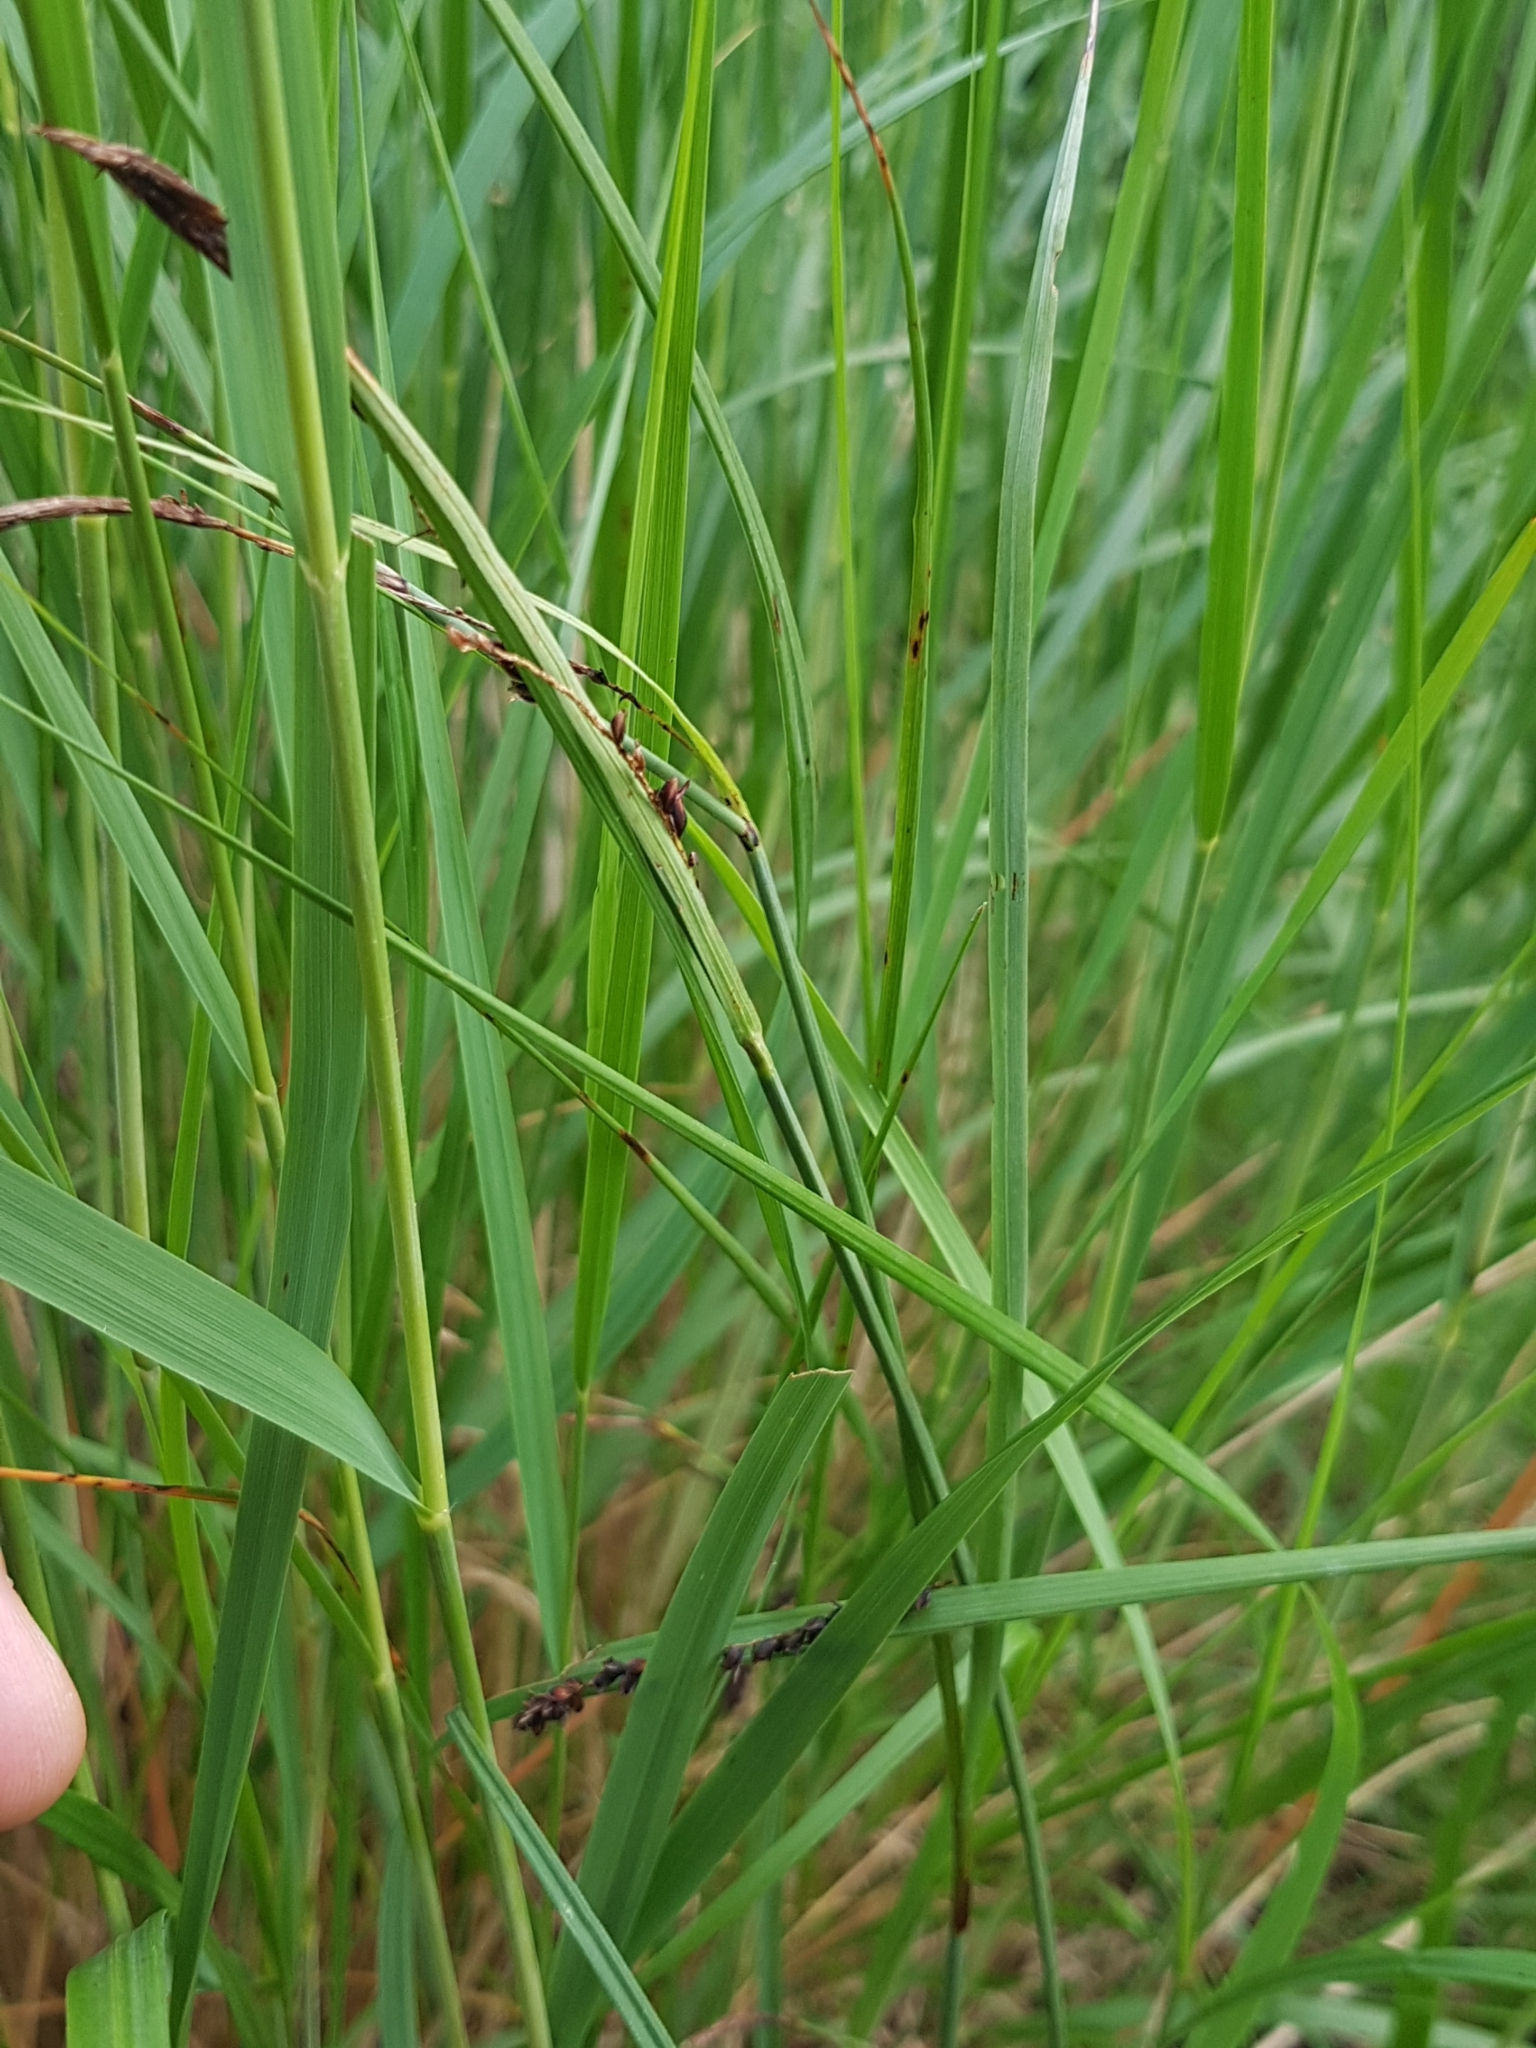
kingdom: Plantae
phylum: Tracheophyta
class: Liliopsida
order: Poales
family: Poaceae
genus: Trisetum
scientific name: Trisetum flavescens
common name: Yellow oat-grass
